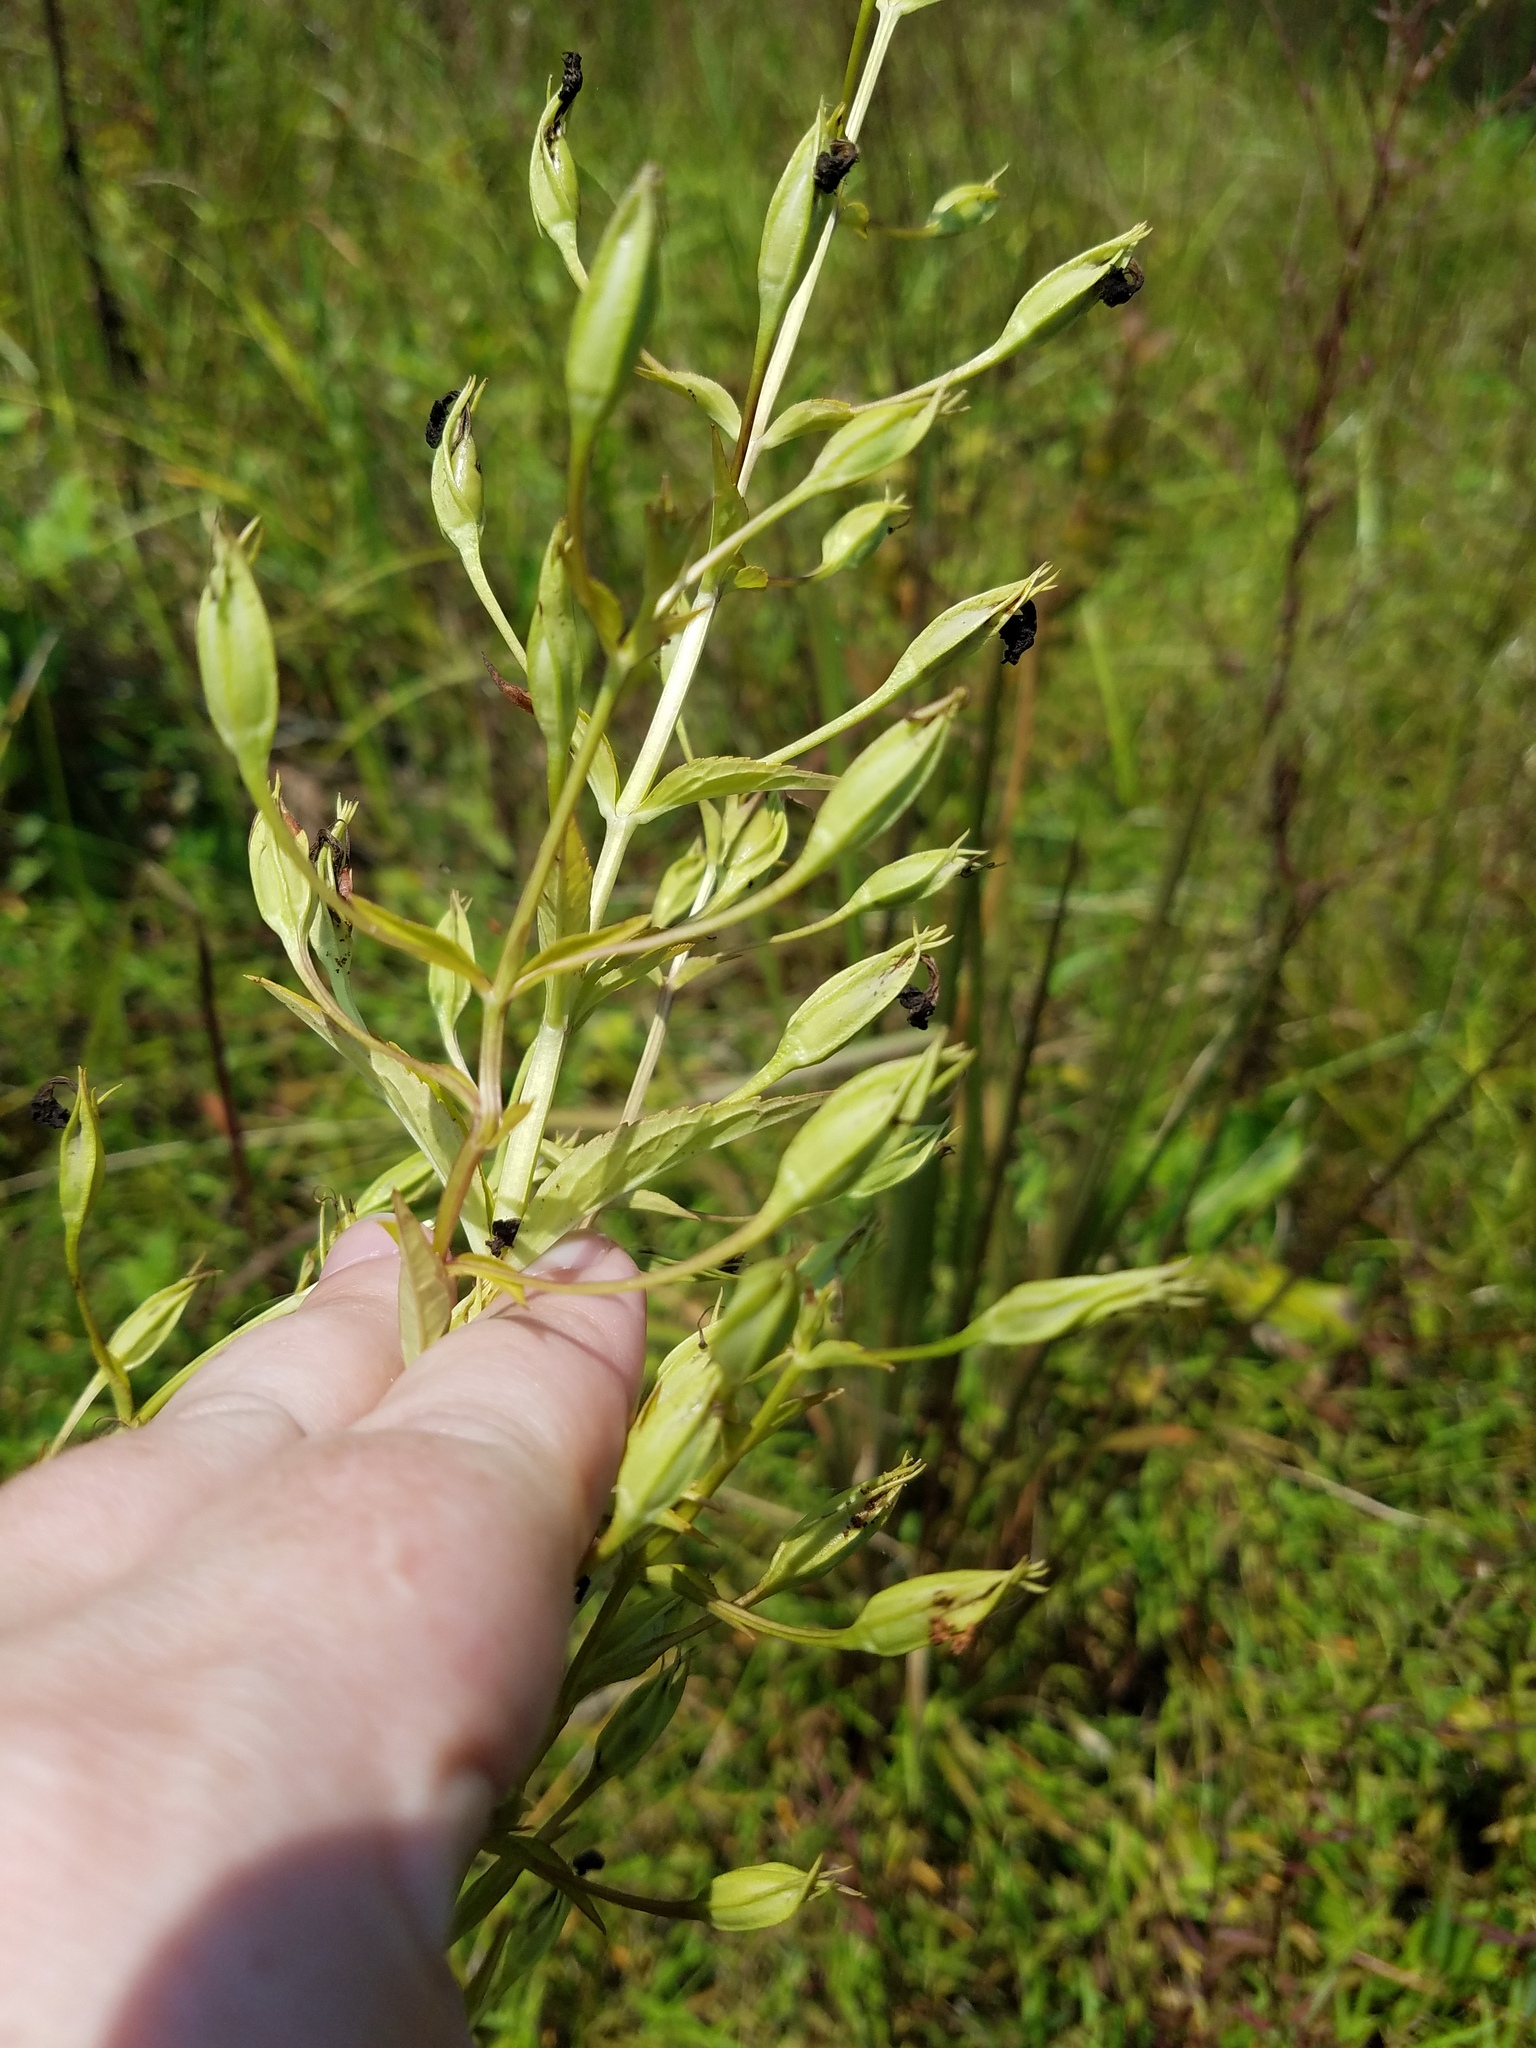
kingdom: Plantae
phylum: Tracheophyta
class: Magnoliopsida
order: Lamiales
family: Phrymaceae
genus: Mimulus
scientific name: Mimulus ringens
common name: Allegheny monkeyflower
